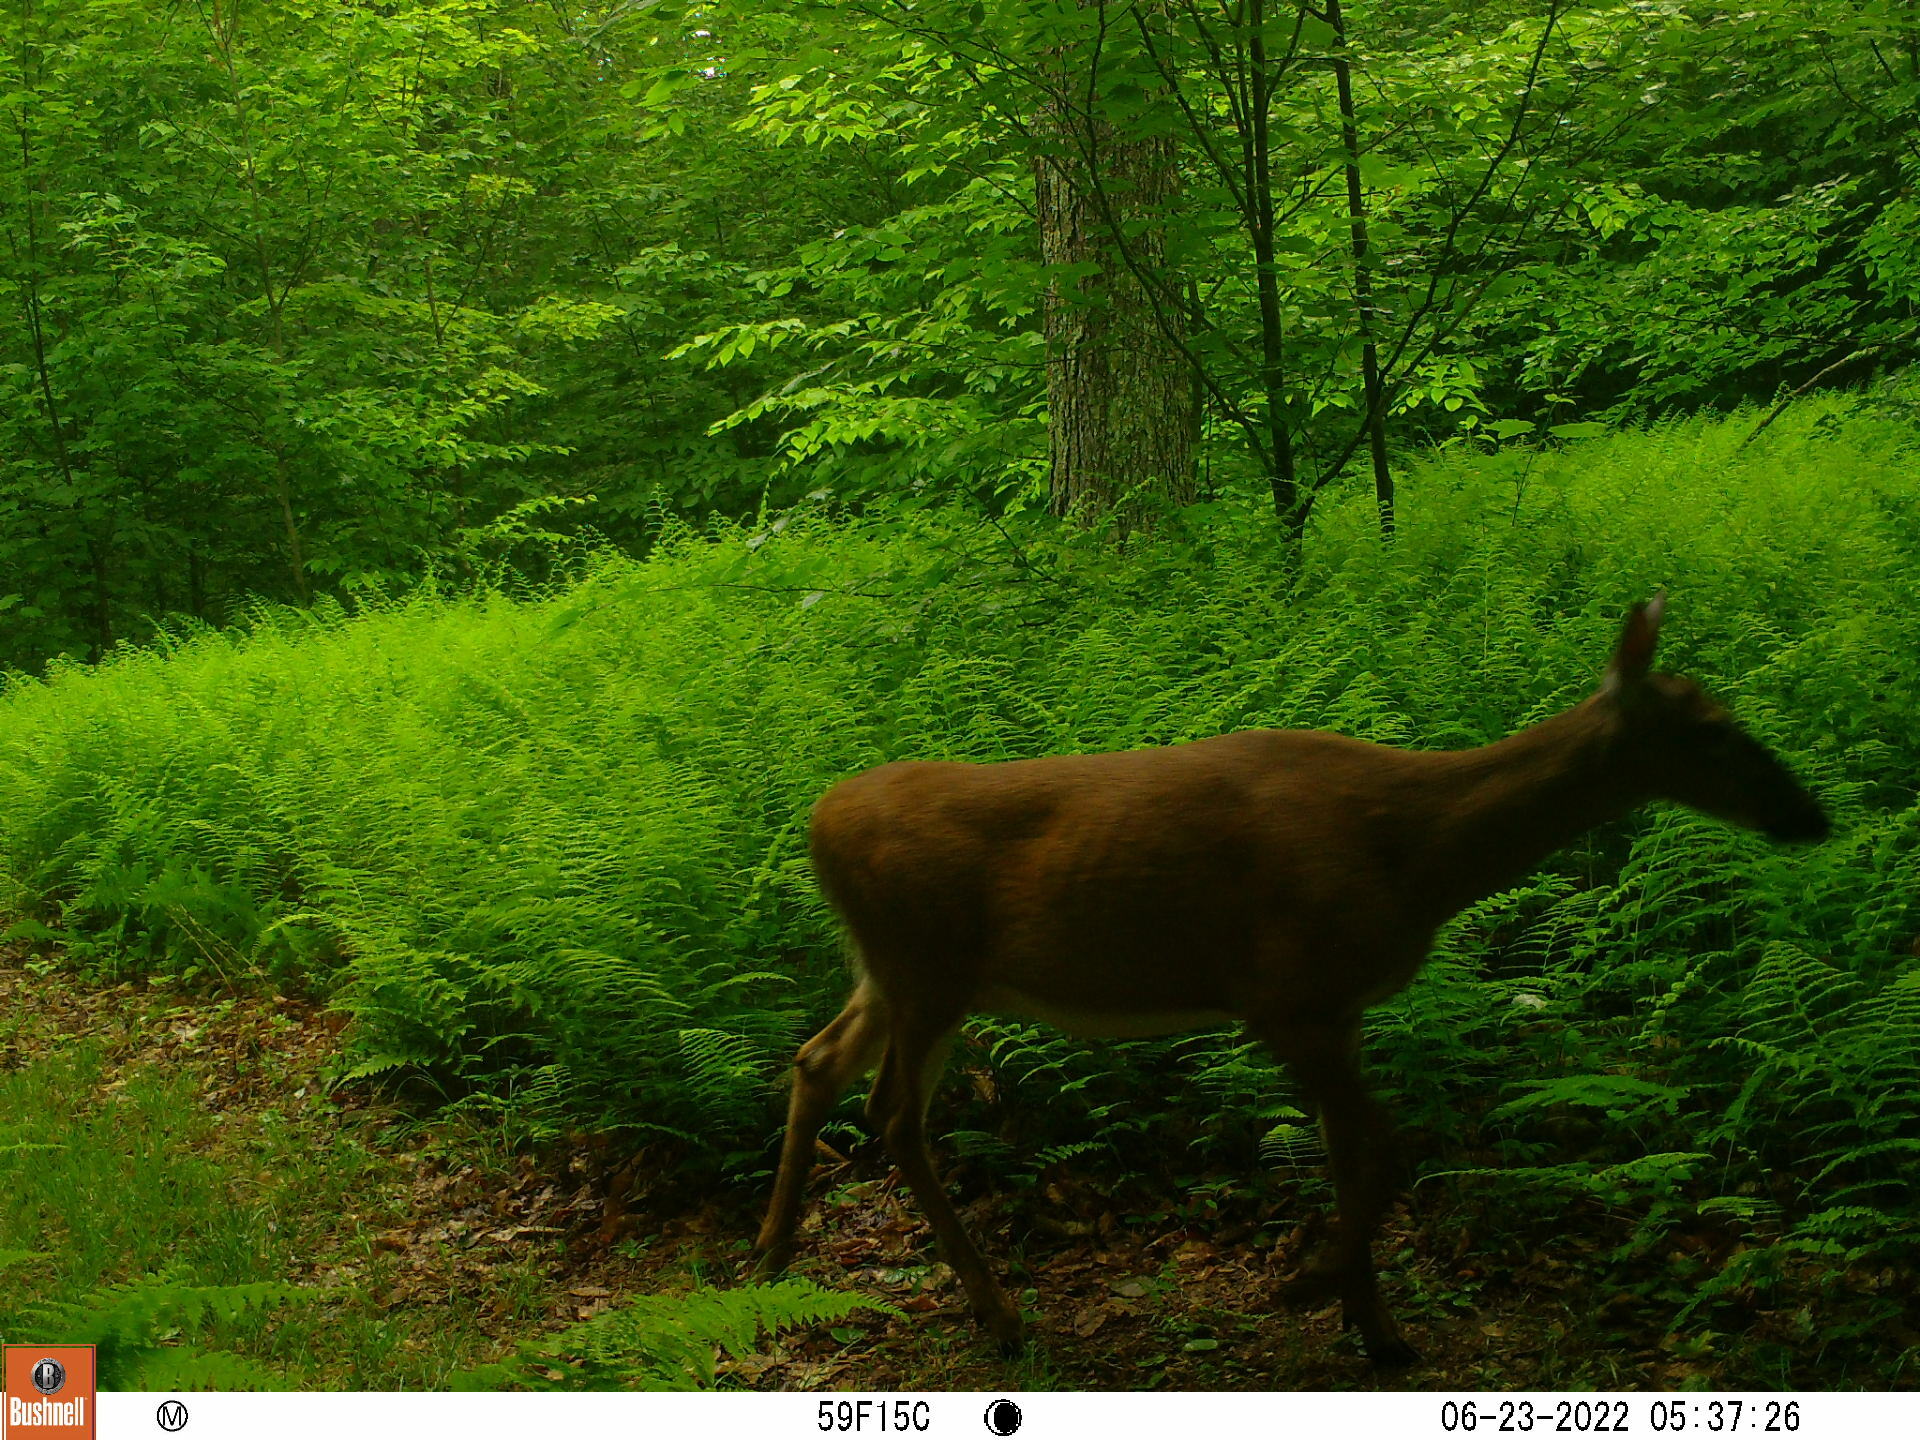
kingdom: Animalia
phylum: Chordata
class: Mammalia
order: Artiodactyla
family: Cervidae
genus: Odocoileus
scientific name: Odocoileus virginianus
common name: White-tailed deer
